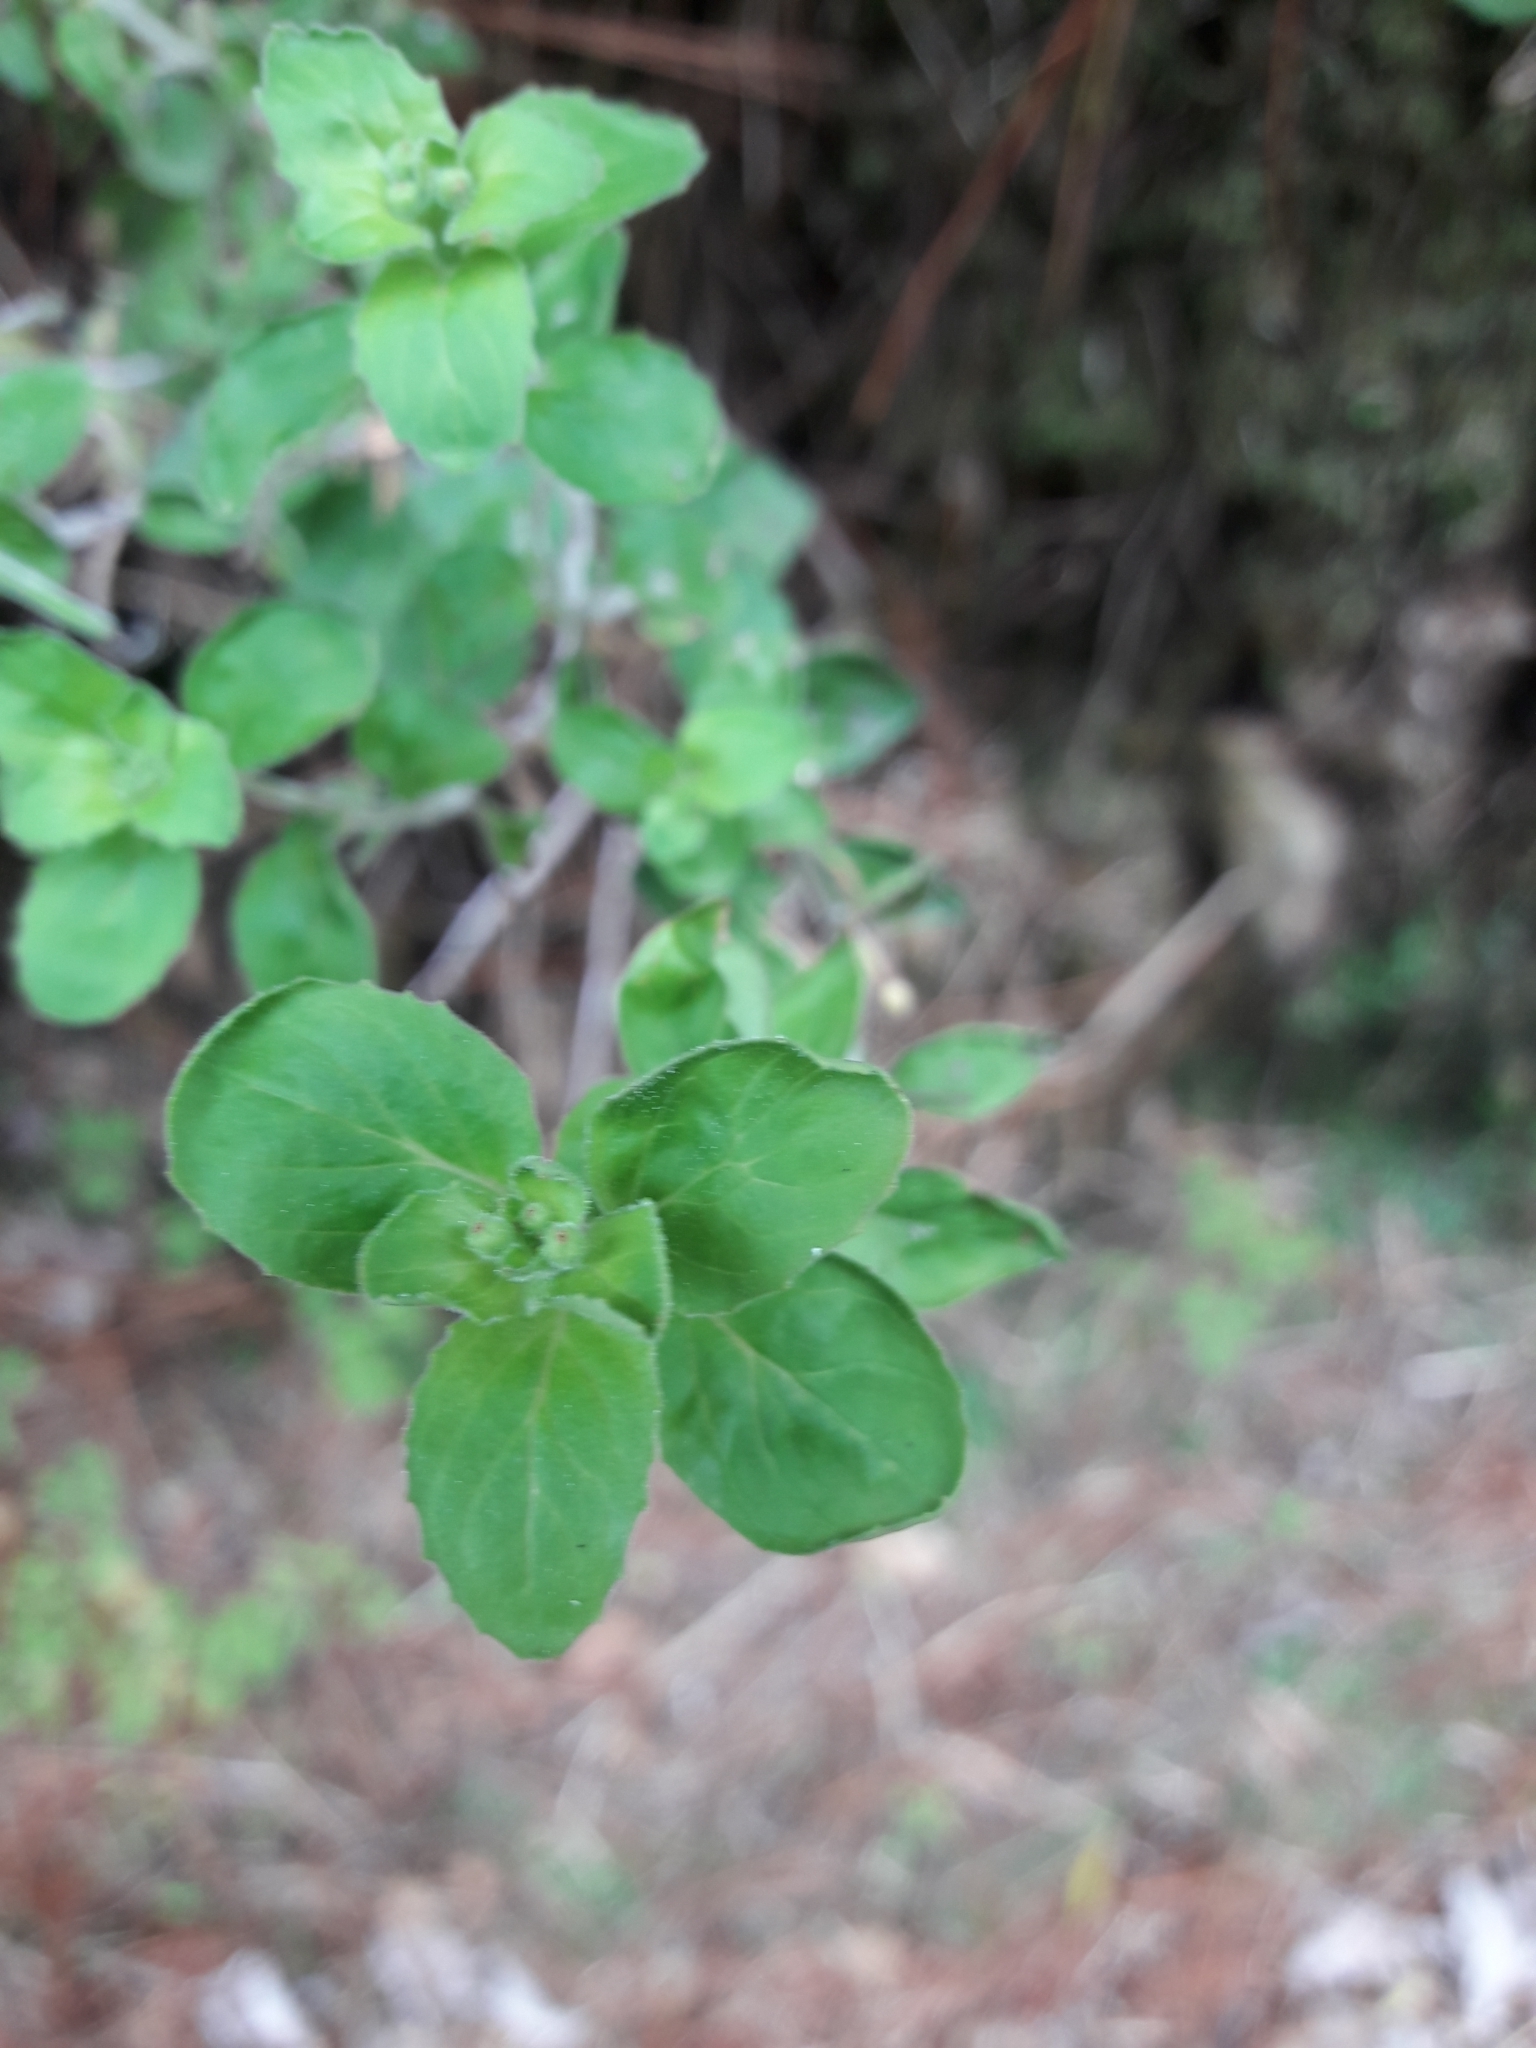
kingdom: Plantae
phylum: Tracheophyta
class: Magnoliopsida
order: Myrtales
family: Onagraceae
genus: Epilobium
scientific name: Epilobium pubens
